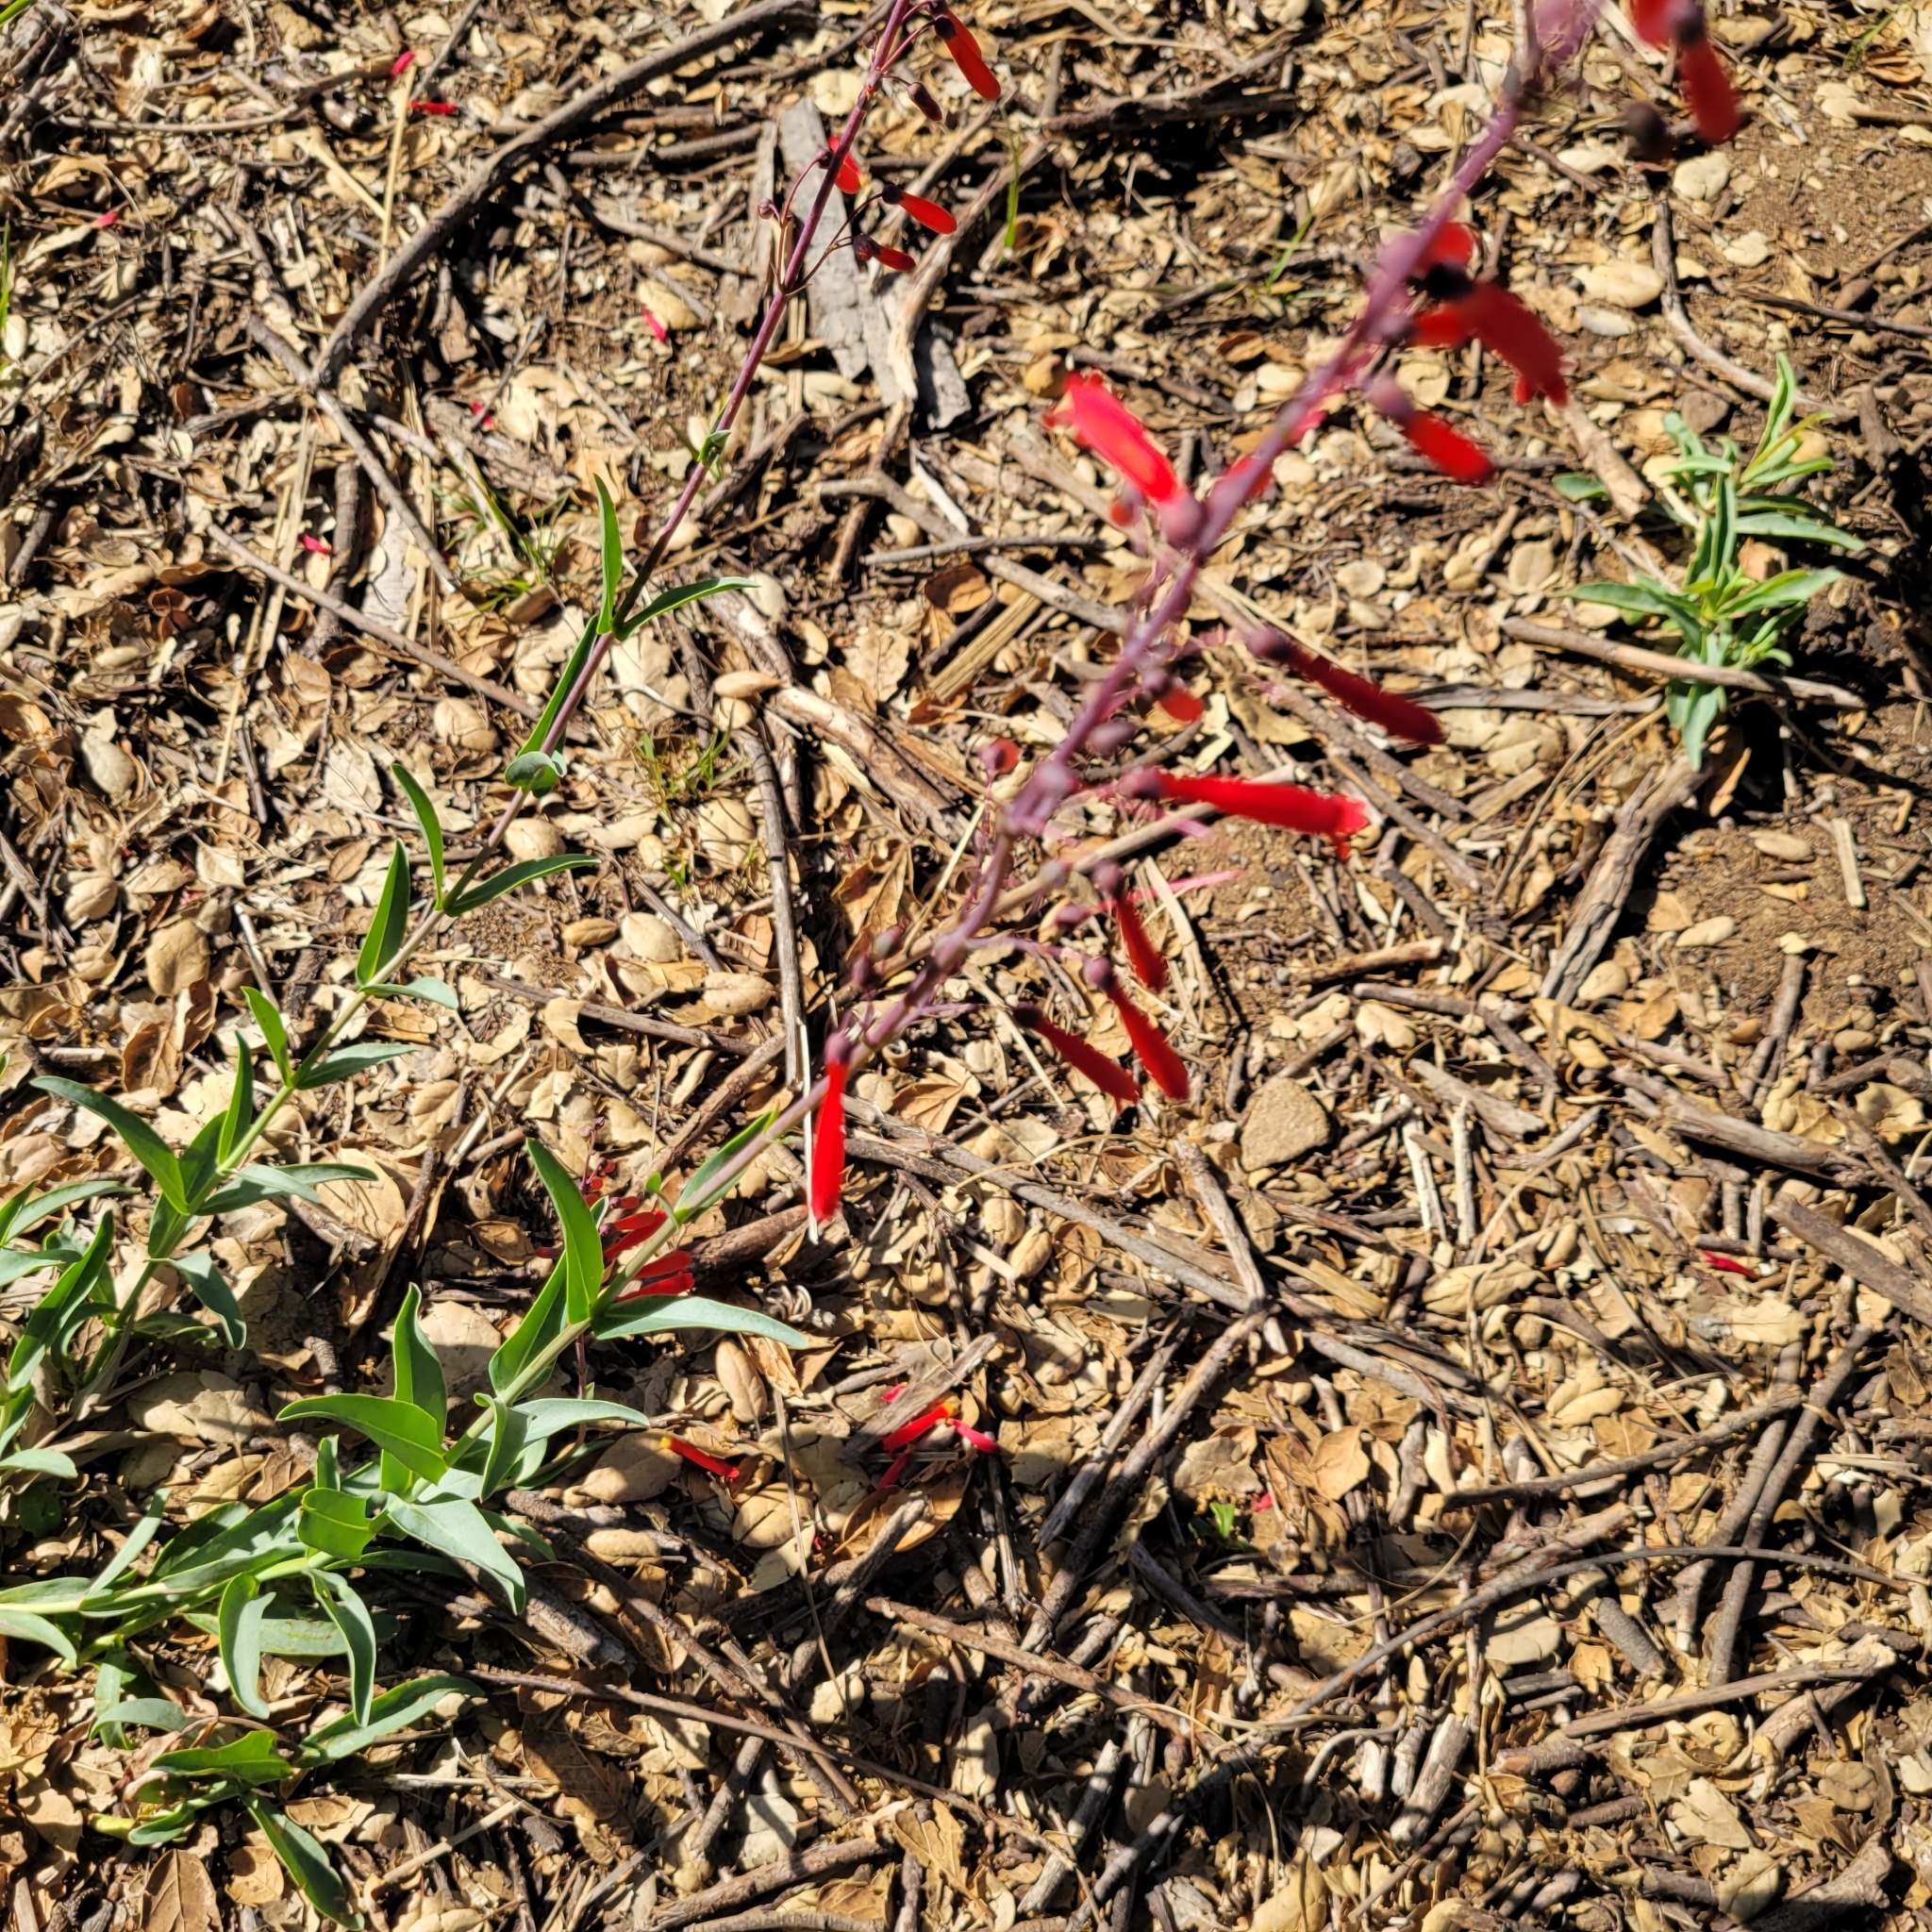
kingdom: Plantae
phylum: Tracheophyta
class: Magnoliopsida
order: Lamiales
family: Plantaginaceae
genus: Penstemon
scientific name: Penstemon centranthifolius
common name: Scarlet bugler
